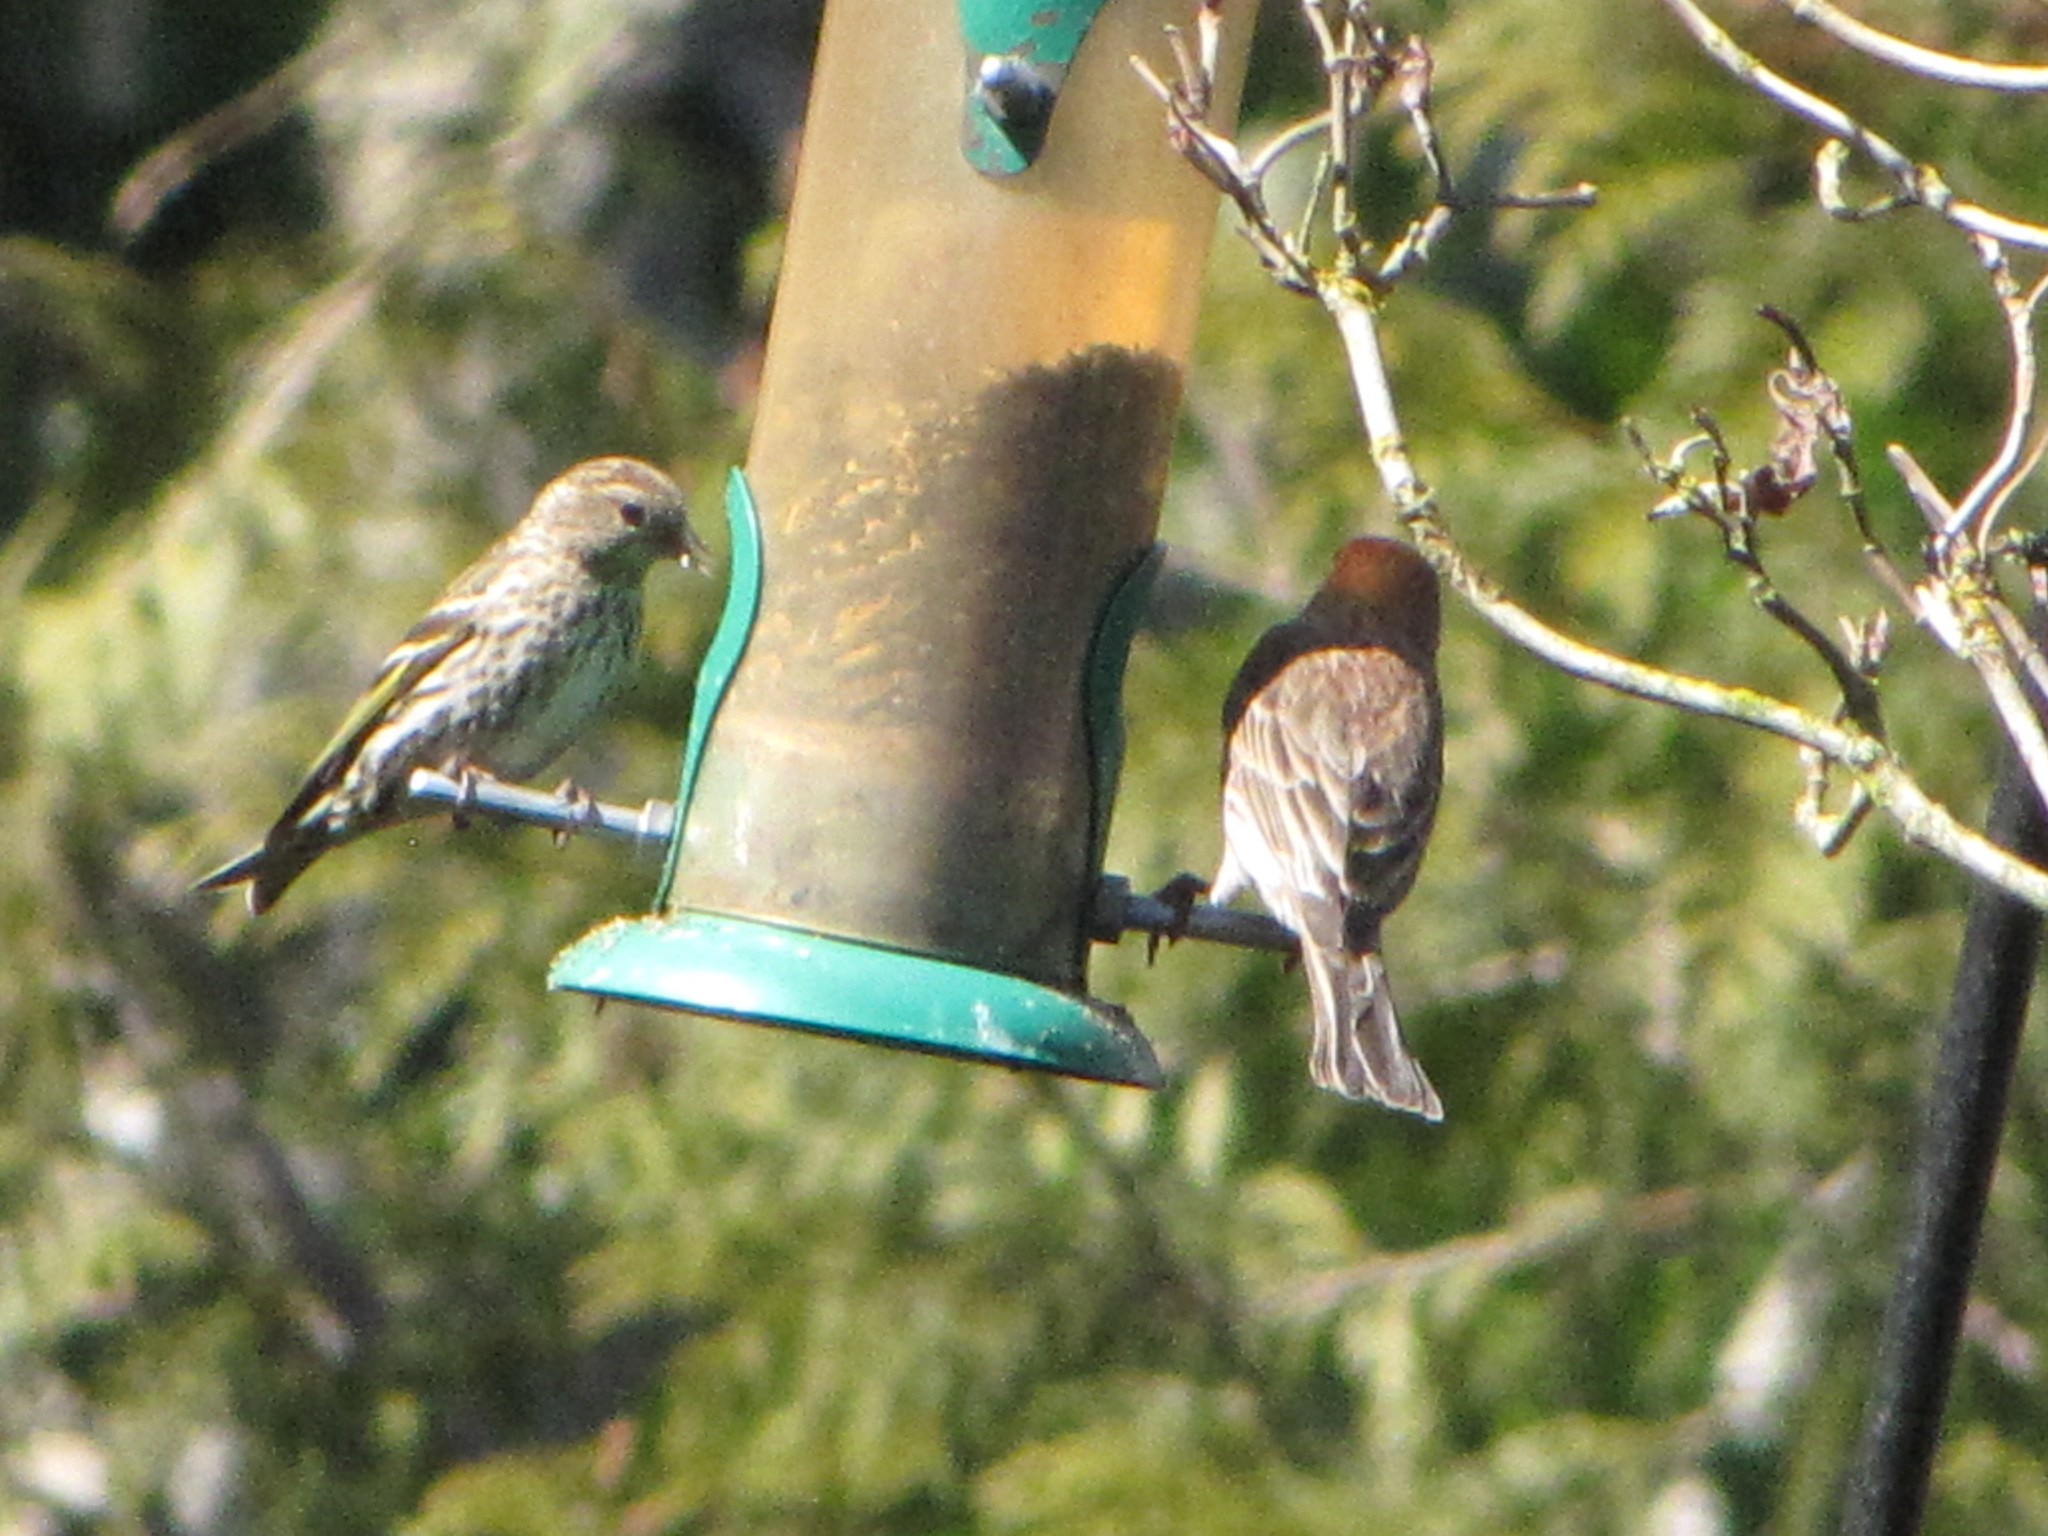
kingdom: Animalia
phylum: Chordata
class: Aves
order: Passeriformes
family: Fringillidae
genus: Spinus
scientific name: Spinus pinus
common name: Pine siskin
